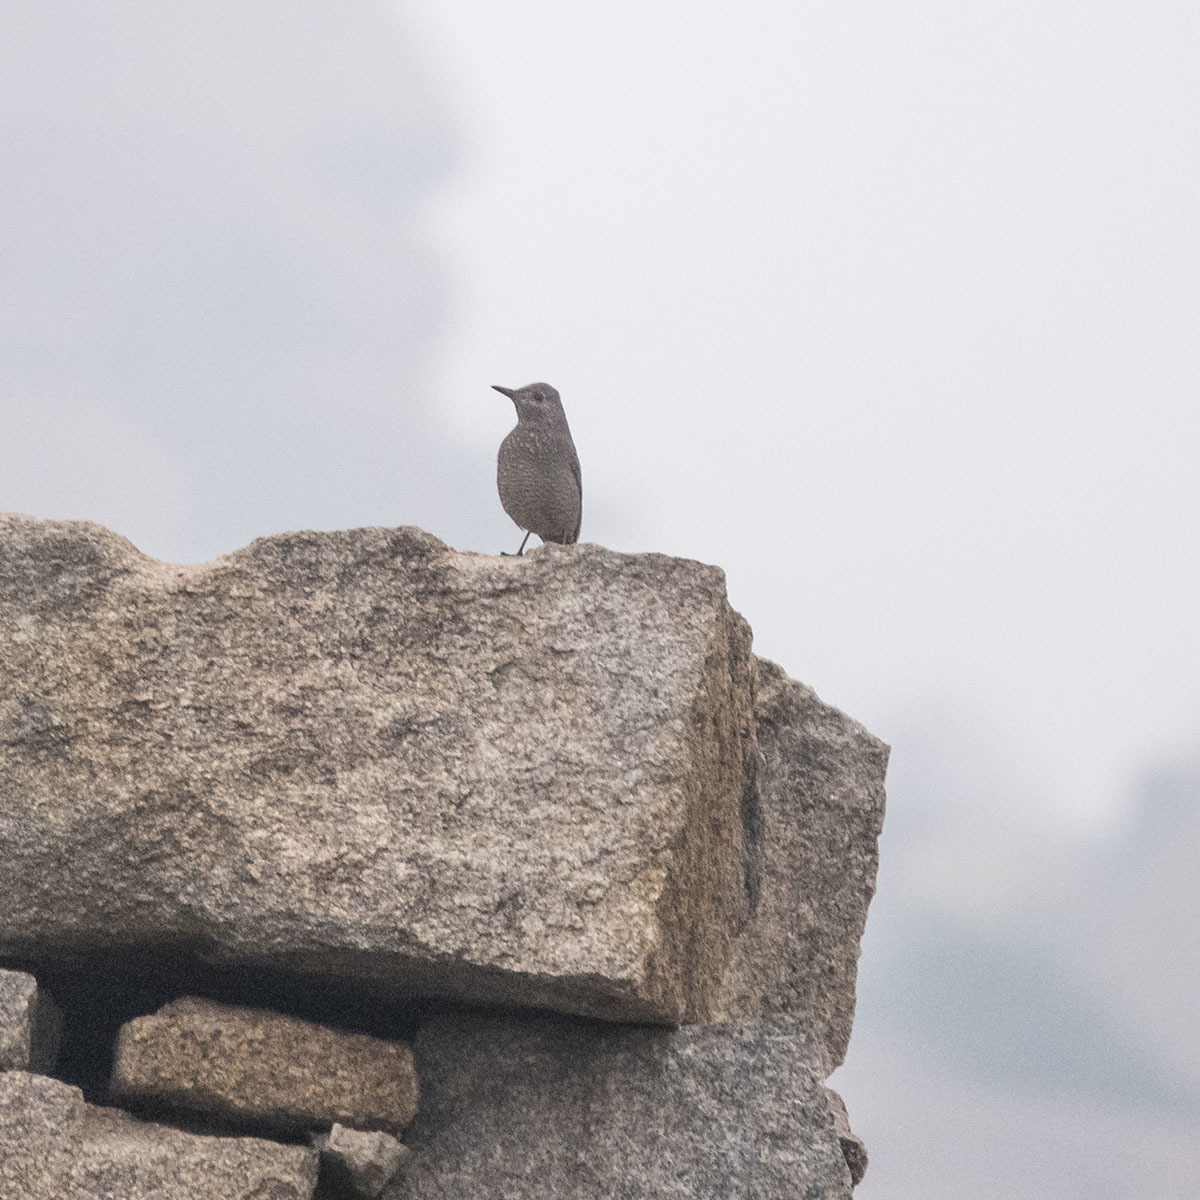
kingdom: Animalia
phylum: Chordata
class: Aves
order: Passeriformes
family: Muscicapidae
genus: Monticola
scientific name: Monticola solitarius
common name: Blue rock thrush
